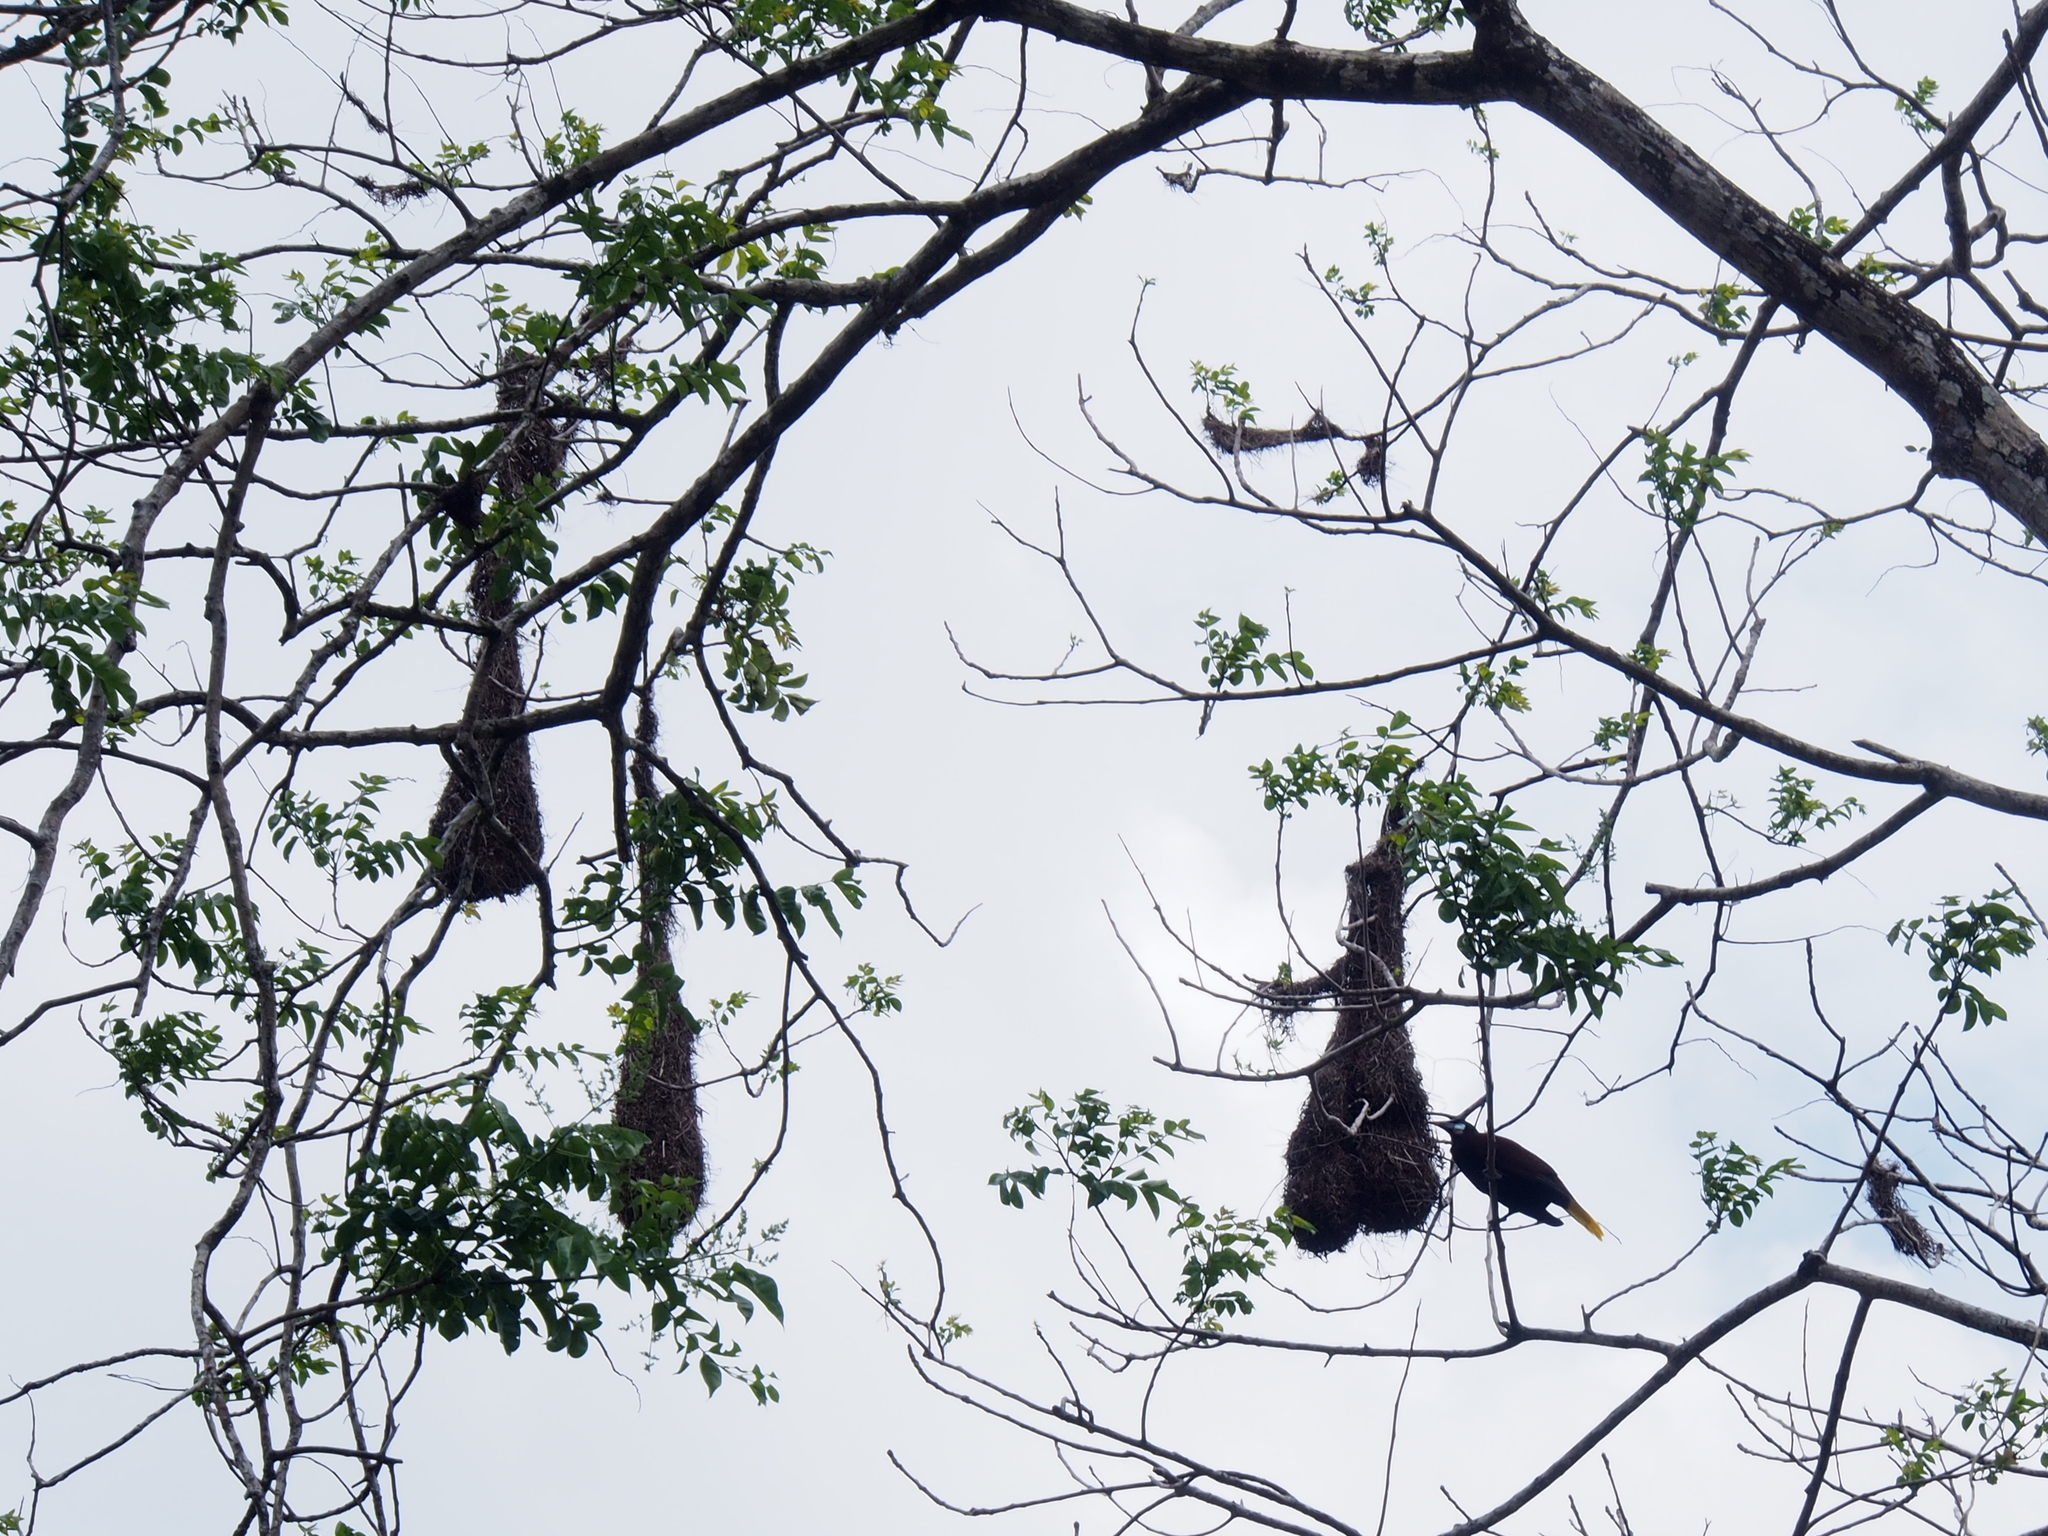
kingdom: Animalia
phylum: Chordata
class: Aves
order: Passeriformes
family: Icteridae
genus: Psarocolius
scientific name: Psarocolius montezuma
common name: Montezuma oropendola
